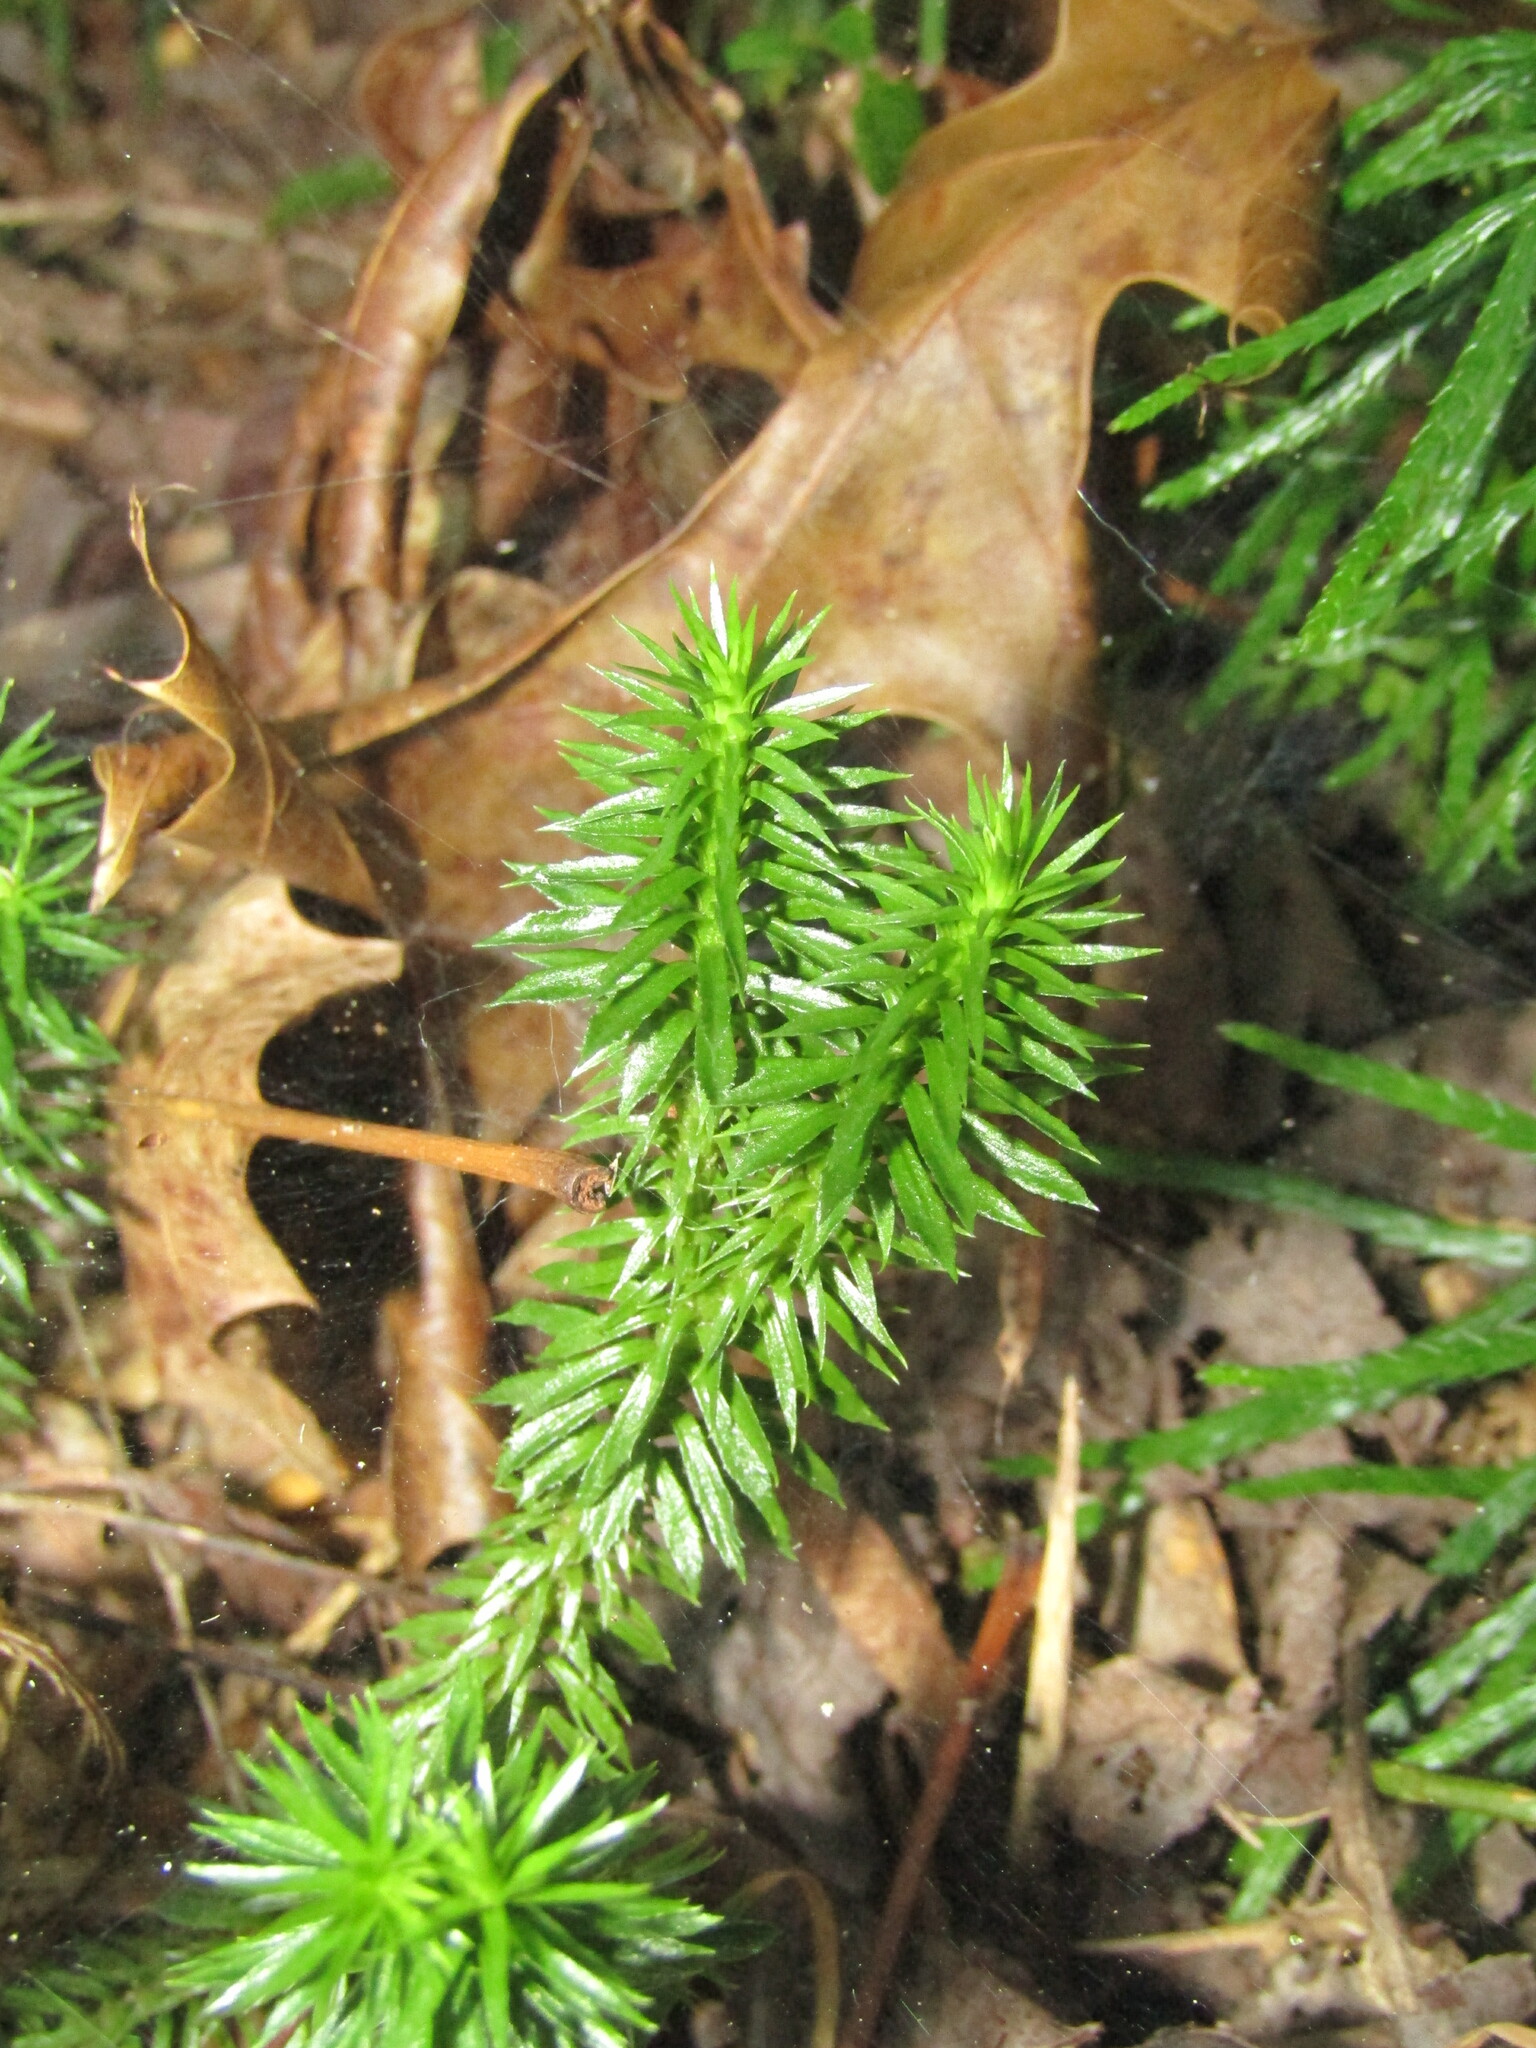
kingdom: Plantae
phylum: Tracheophyta
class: Lycopodiopsida
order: Lycopodiales
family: Lycopodiaceae
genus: Huperzia
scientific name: Huperzia lucidula
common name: Shining clubmoss
